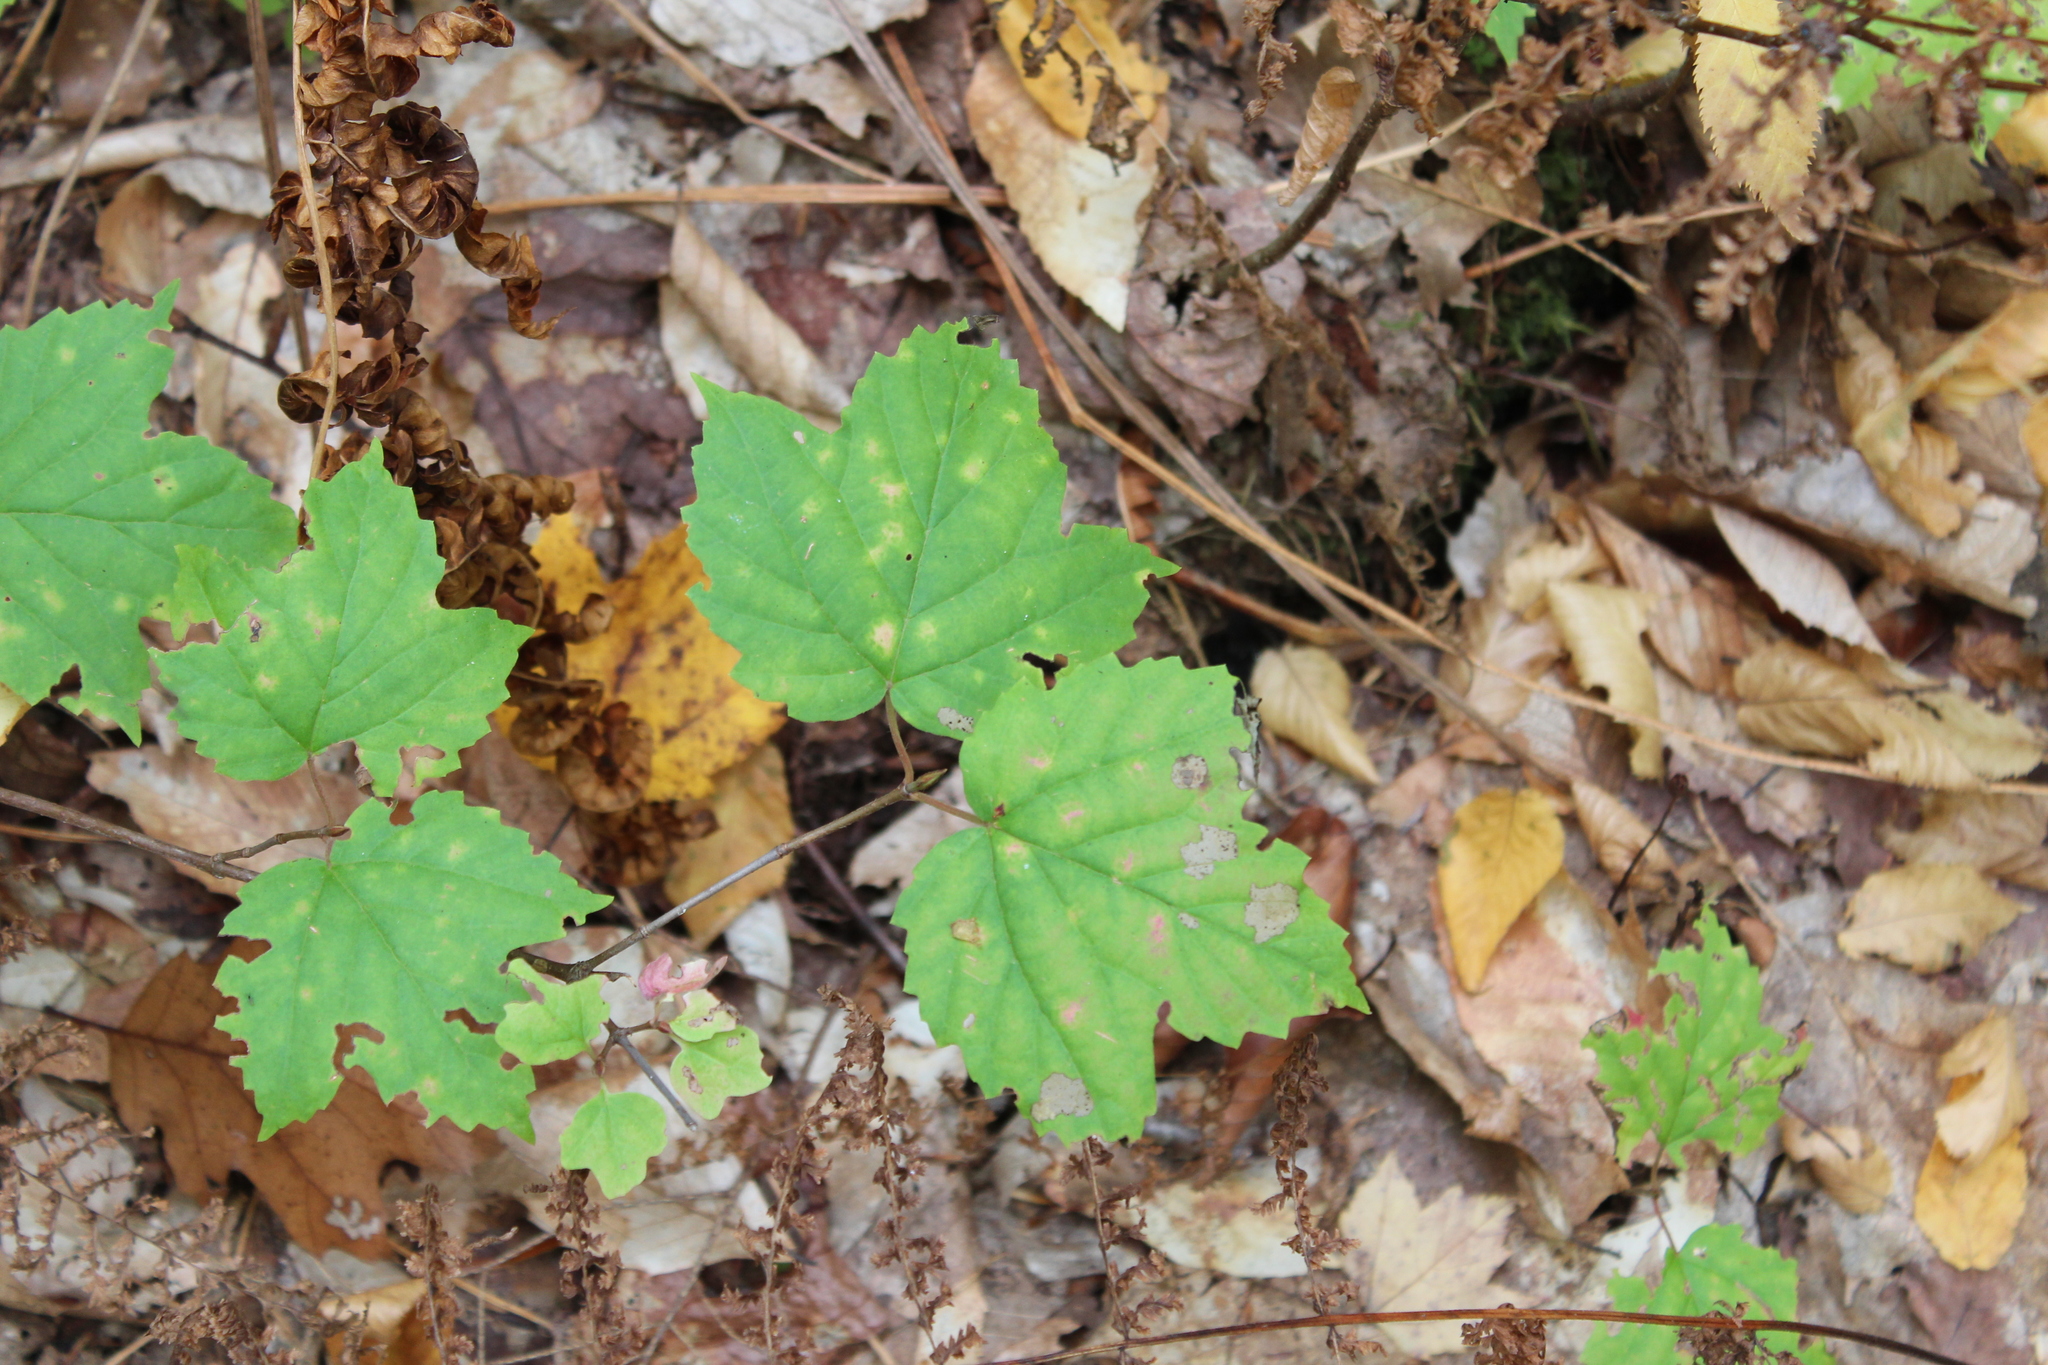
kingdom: Plantae
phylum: Tracheophyta
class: Magnoliopsida
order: Dipsacales
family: Viburnaceae
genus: Viburnum
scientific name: Viburnum acerifolium
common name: Dockmackie
